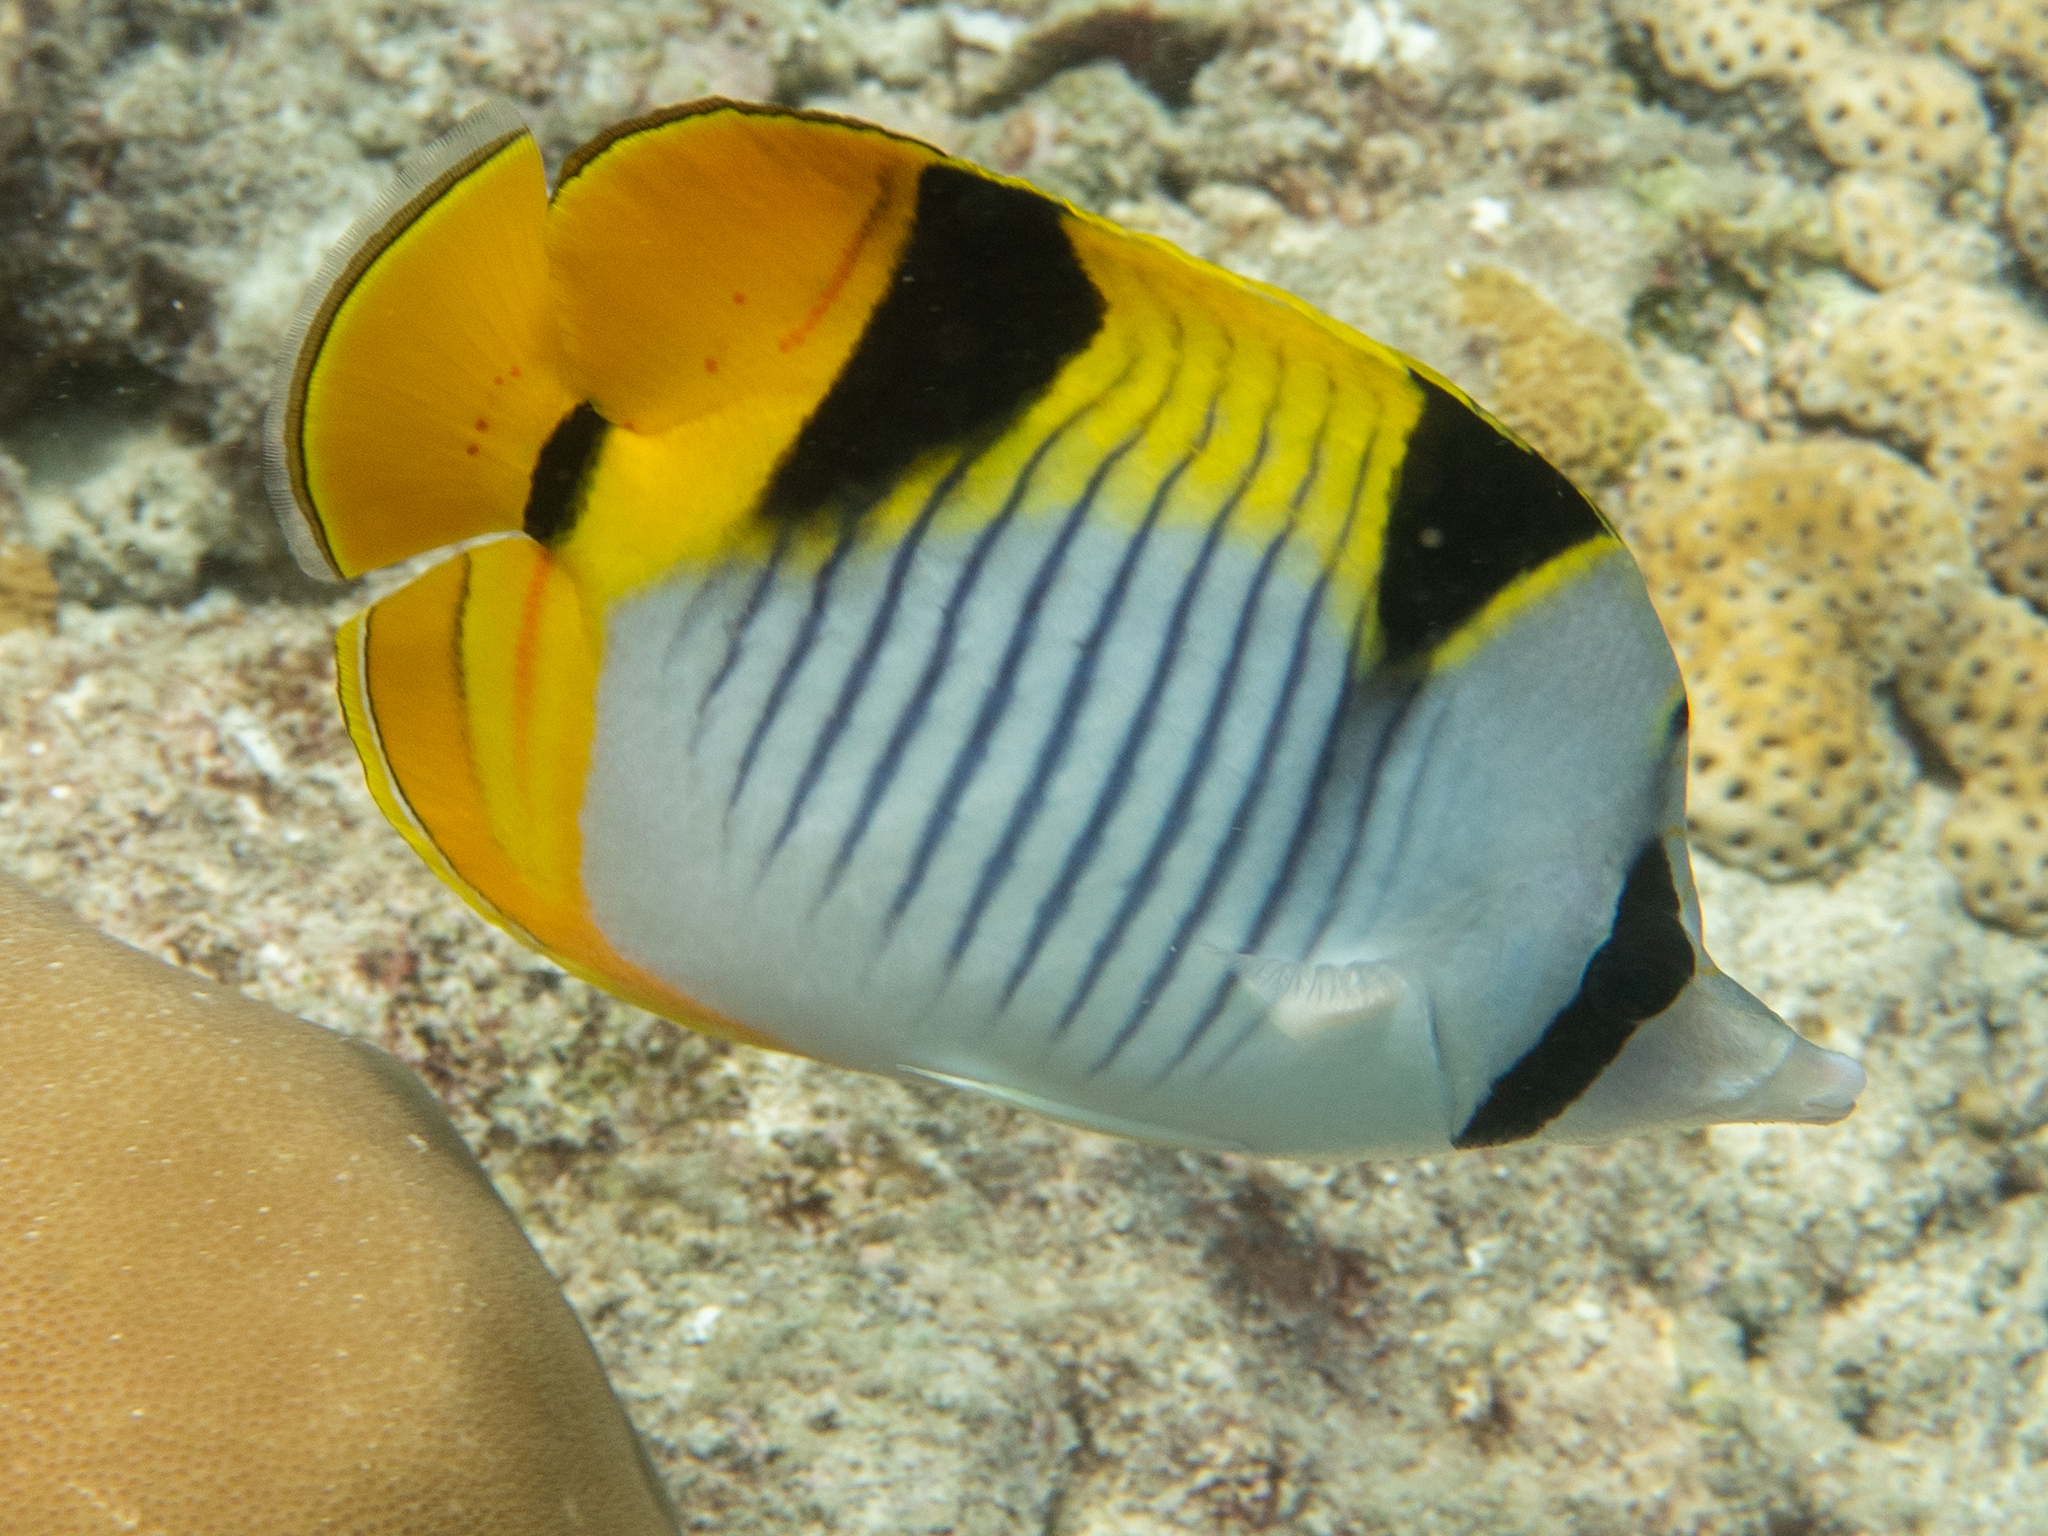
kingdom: Animalia
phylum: Chordata
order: Perciformes
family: Chaetodontidae
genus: Chaetodon
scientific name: Chaetodon falcula
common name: Blackwedged butterflyfish
